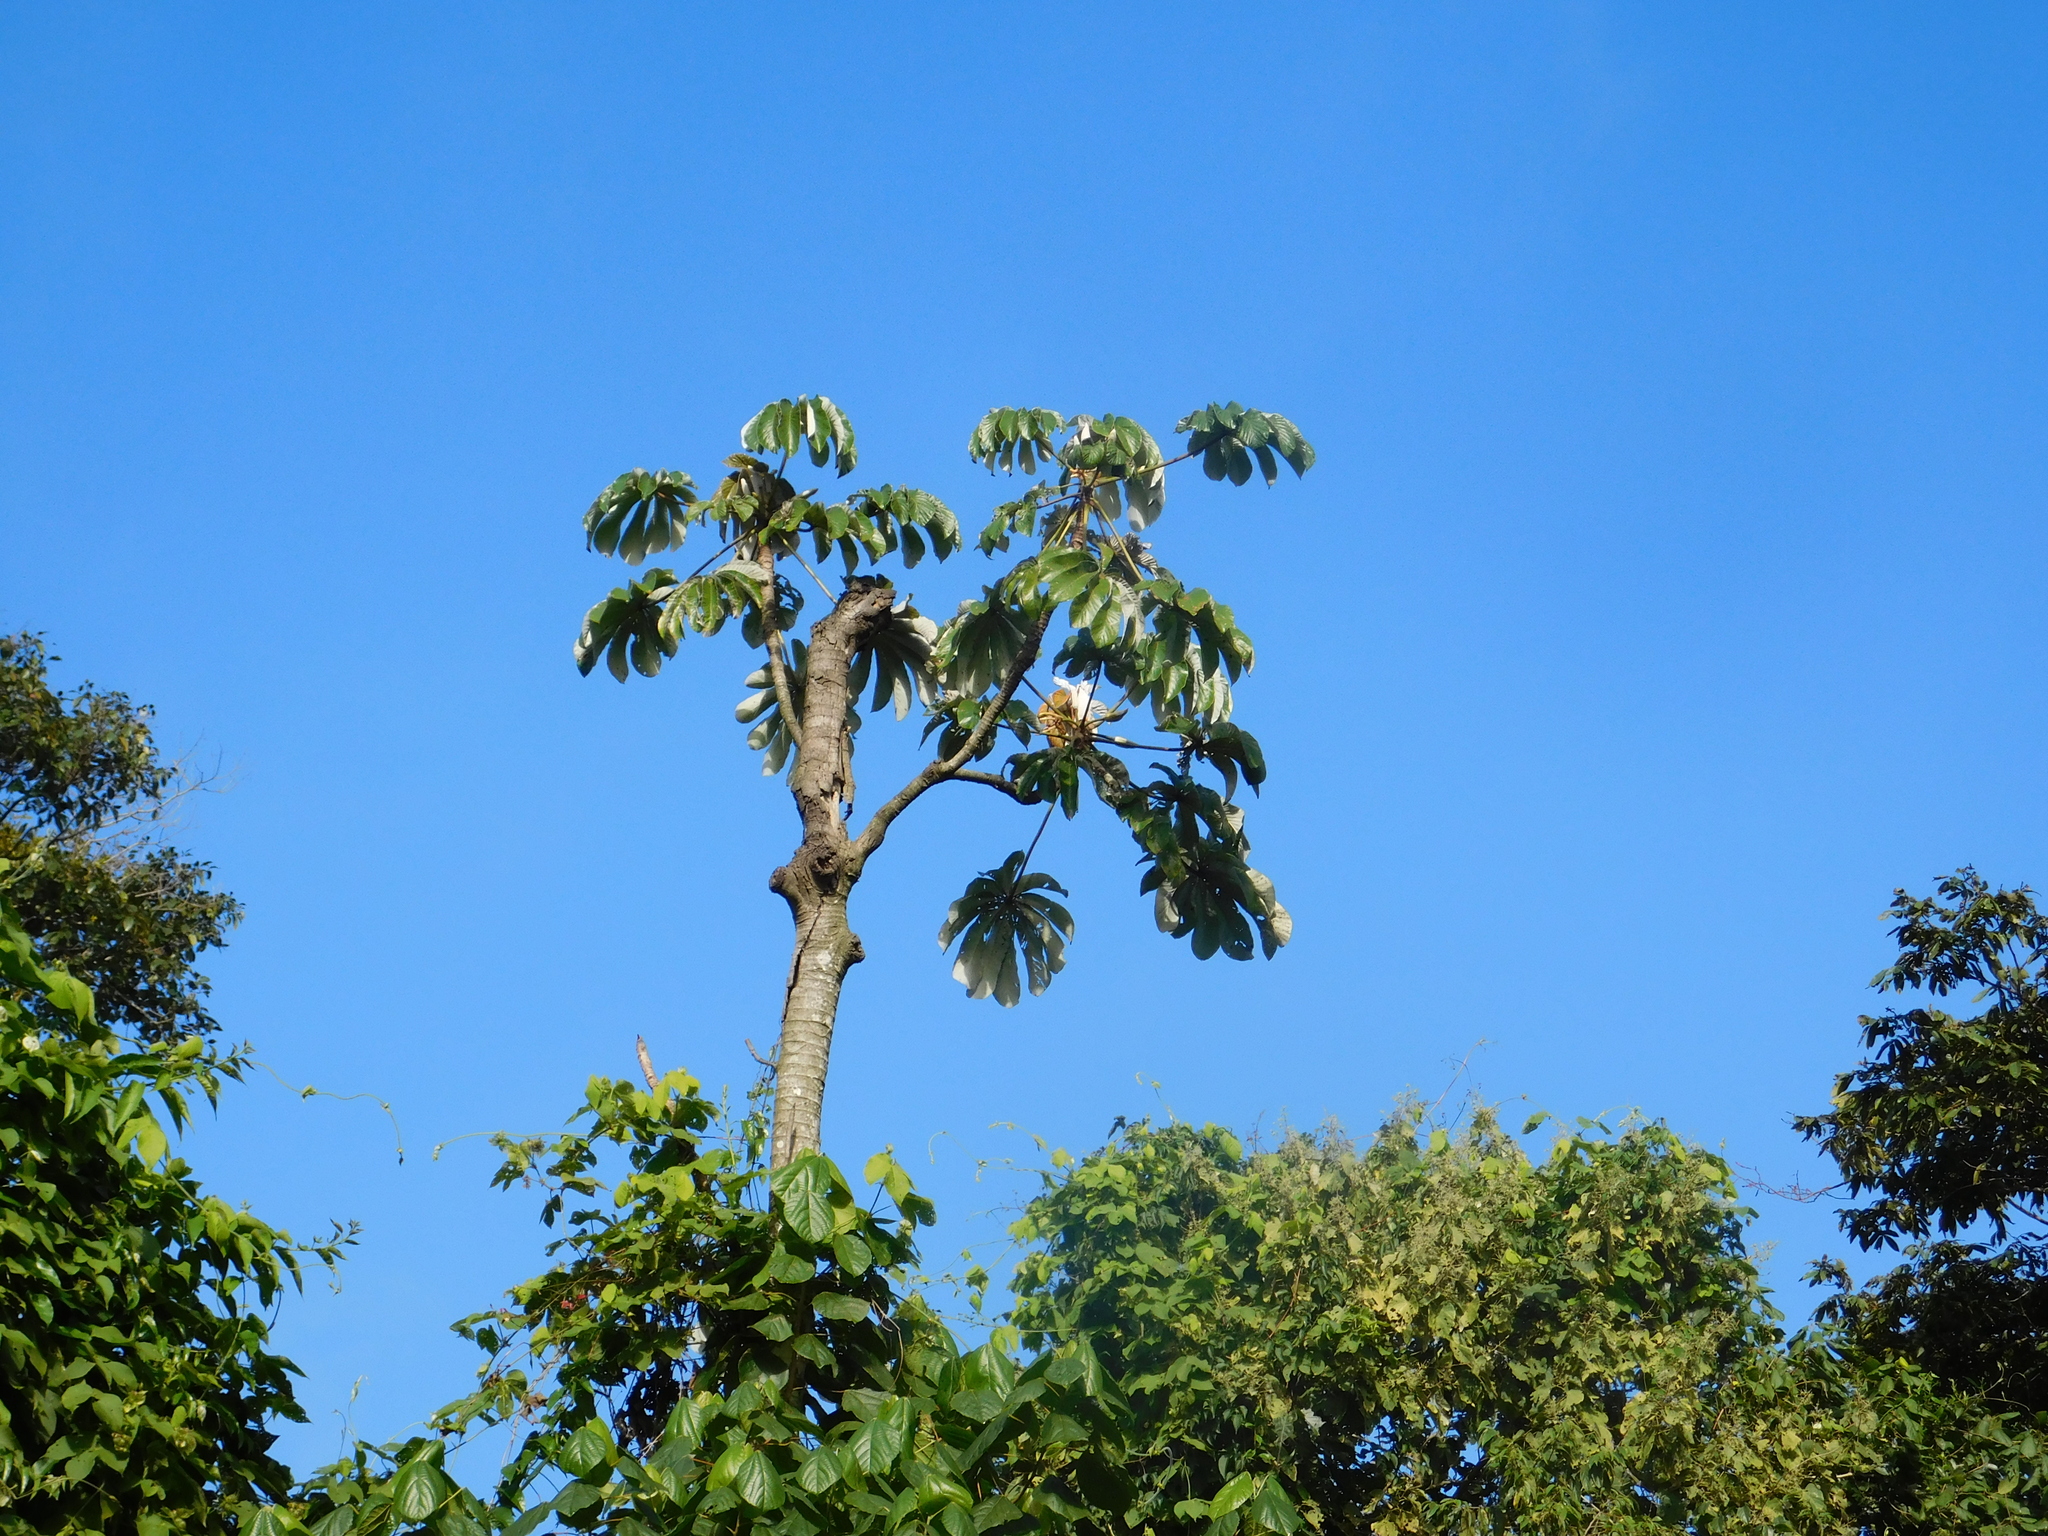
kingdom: Plantae
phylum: Tracheophyta
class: Magnoliopsida
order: Rosales
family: Urticaceae
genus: Cecropia
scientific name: Cecropia pachystachya
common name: Ambay pumpwood
